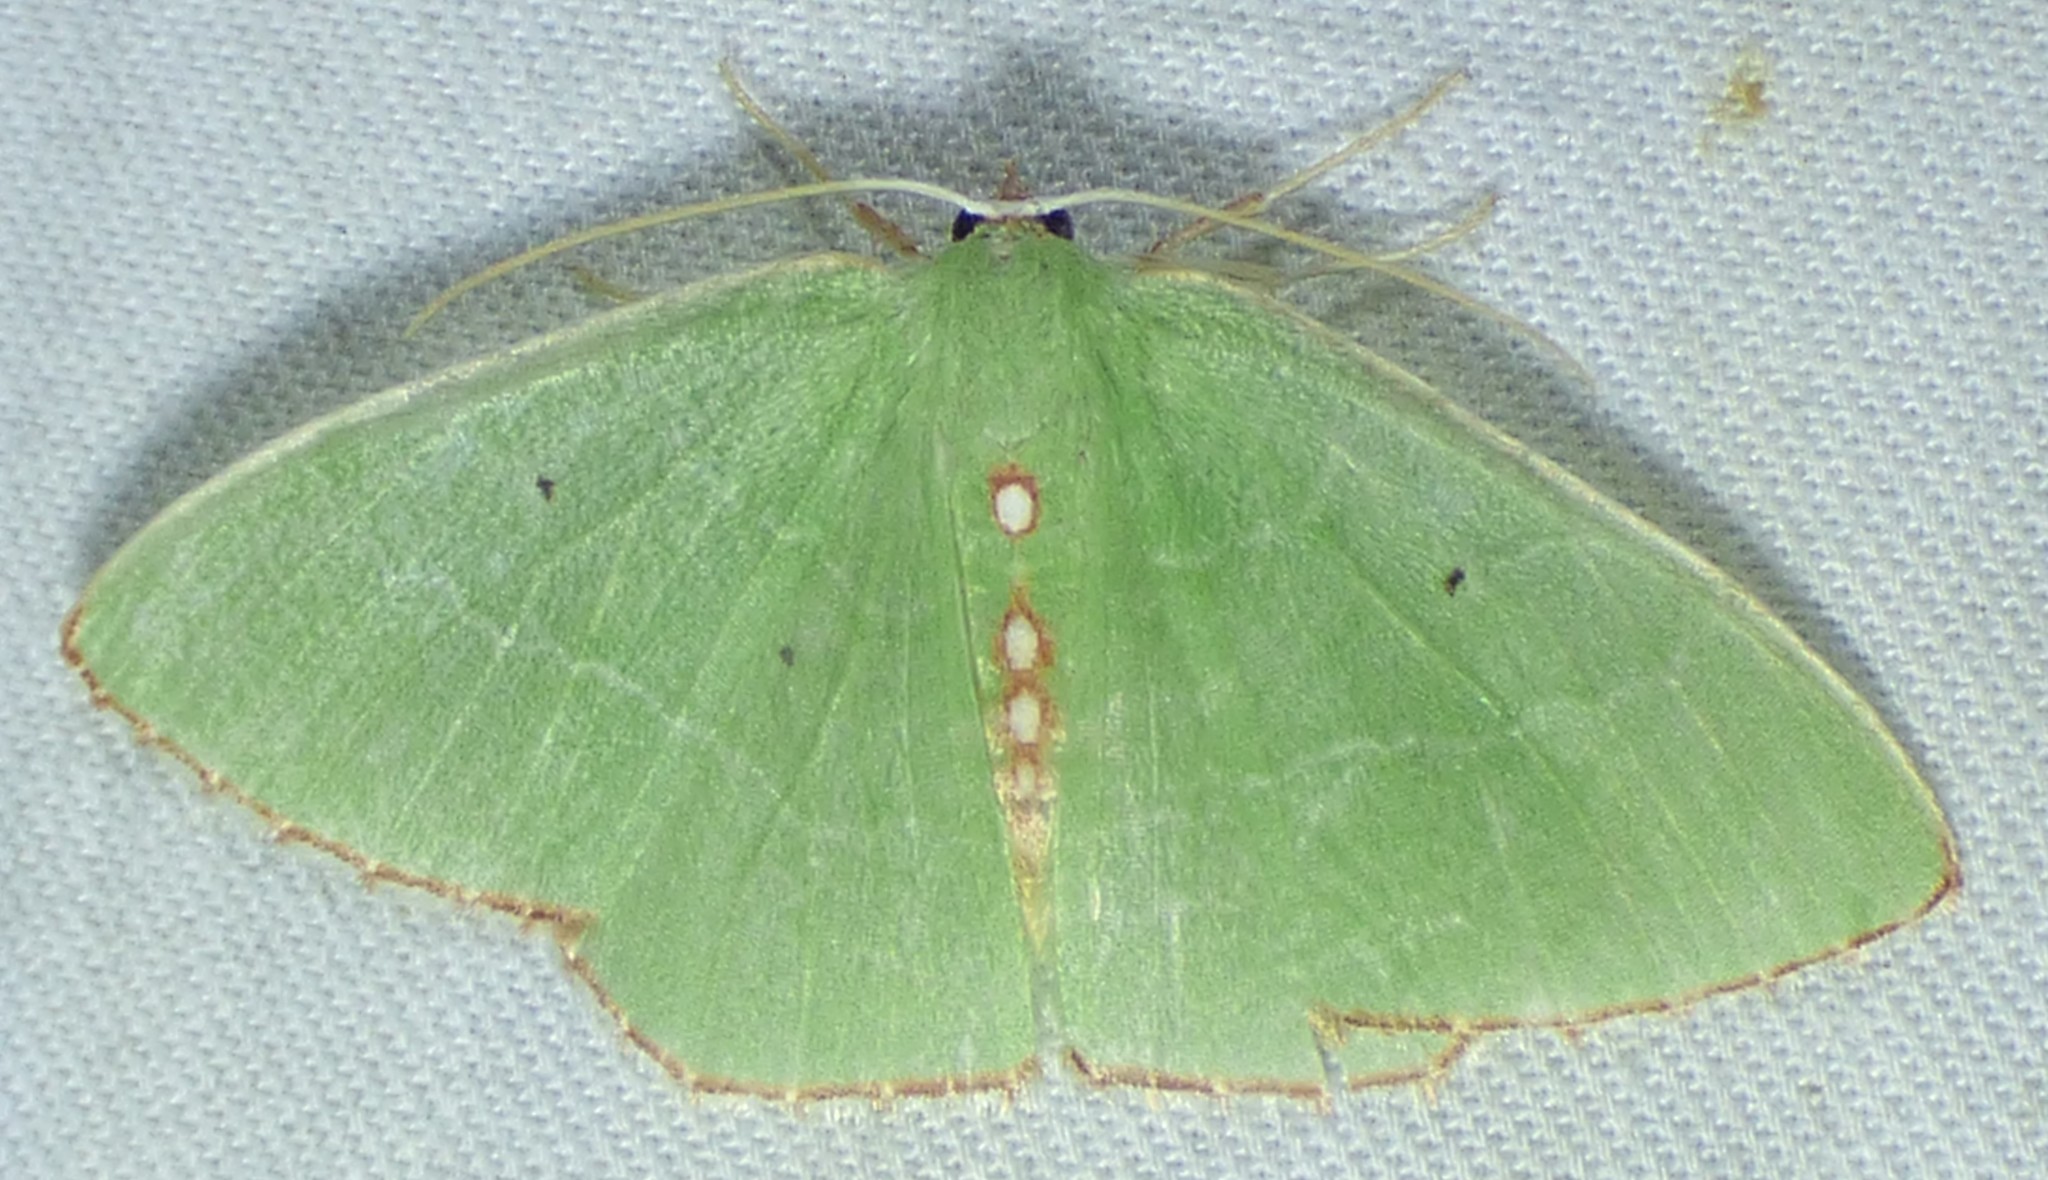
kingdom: Animalia
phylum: Arthropoda
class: Insecta
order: Lepidoptera
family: Geometridae
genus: Nemoria
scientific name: Nemoria lixaria
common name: Red-bordered emerald
